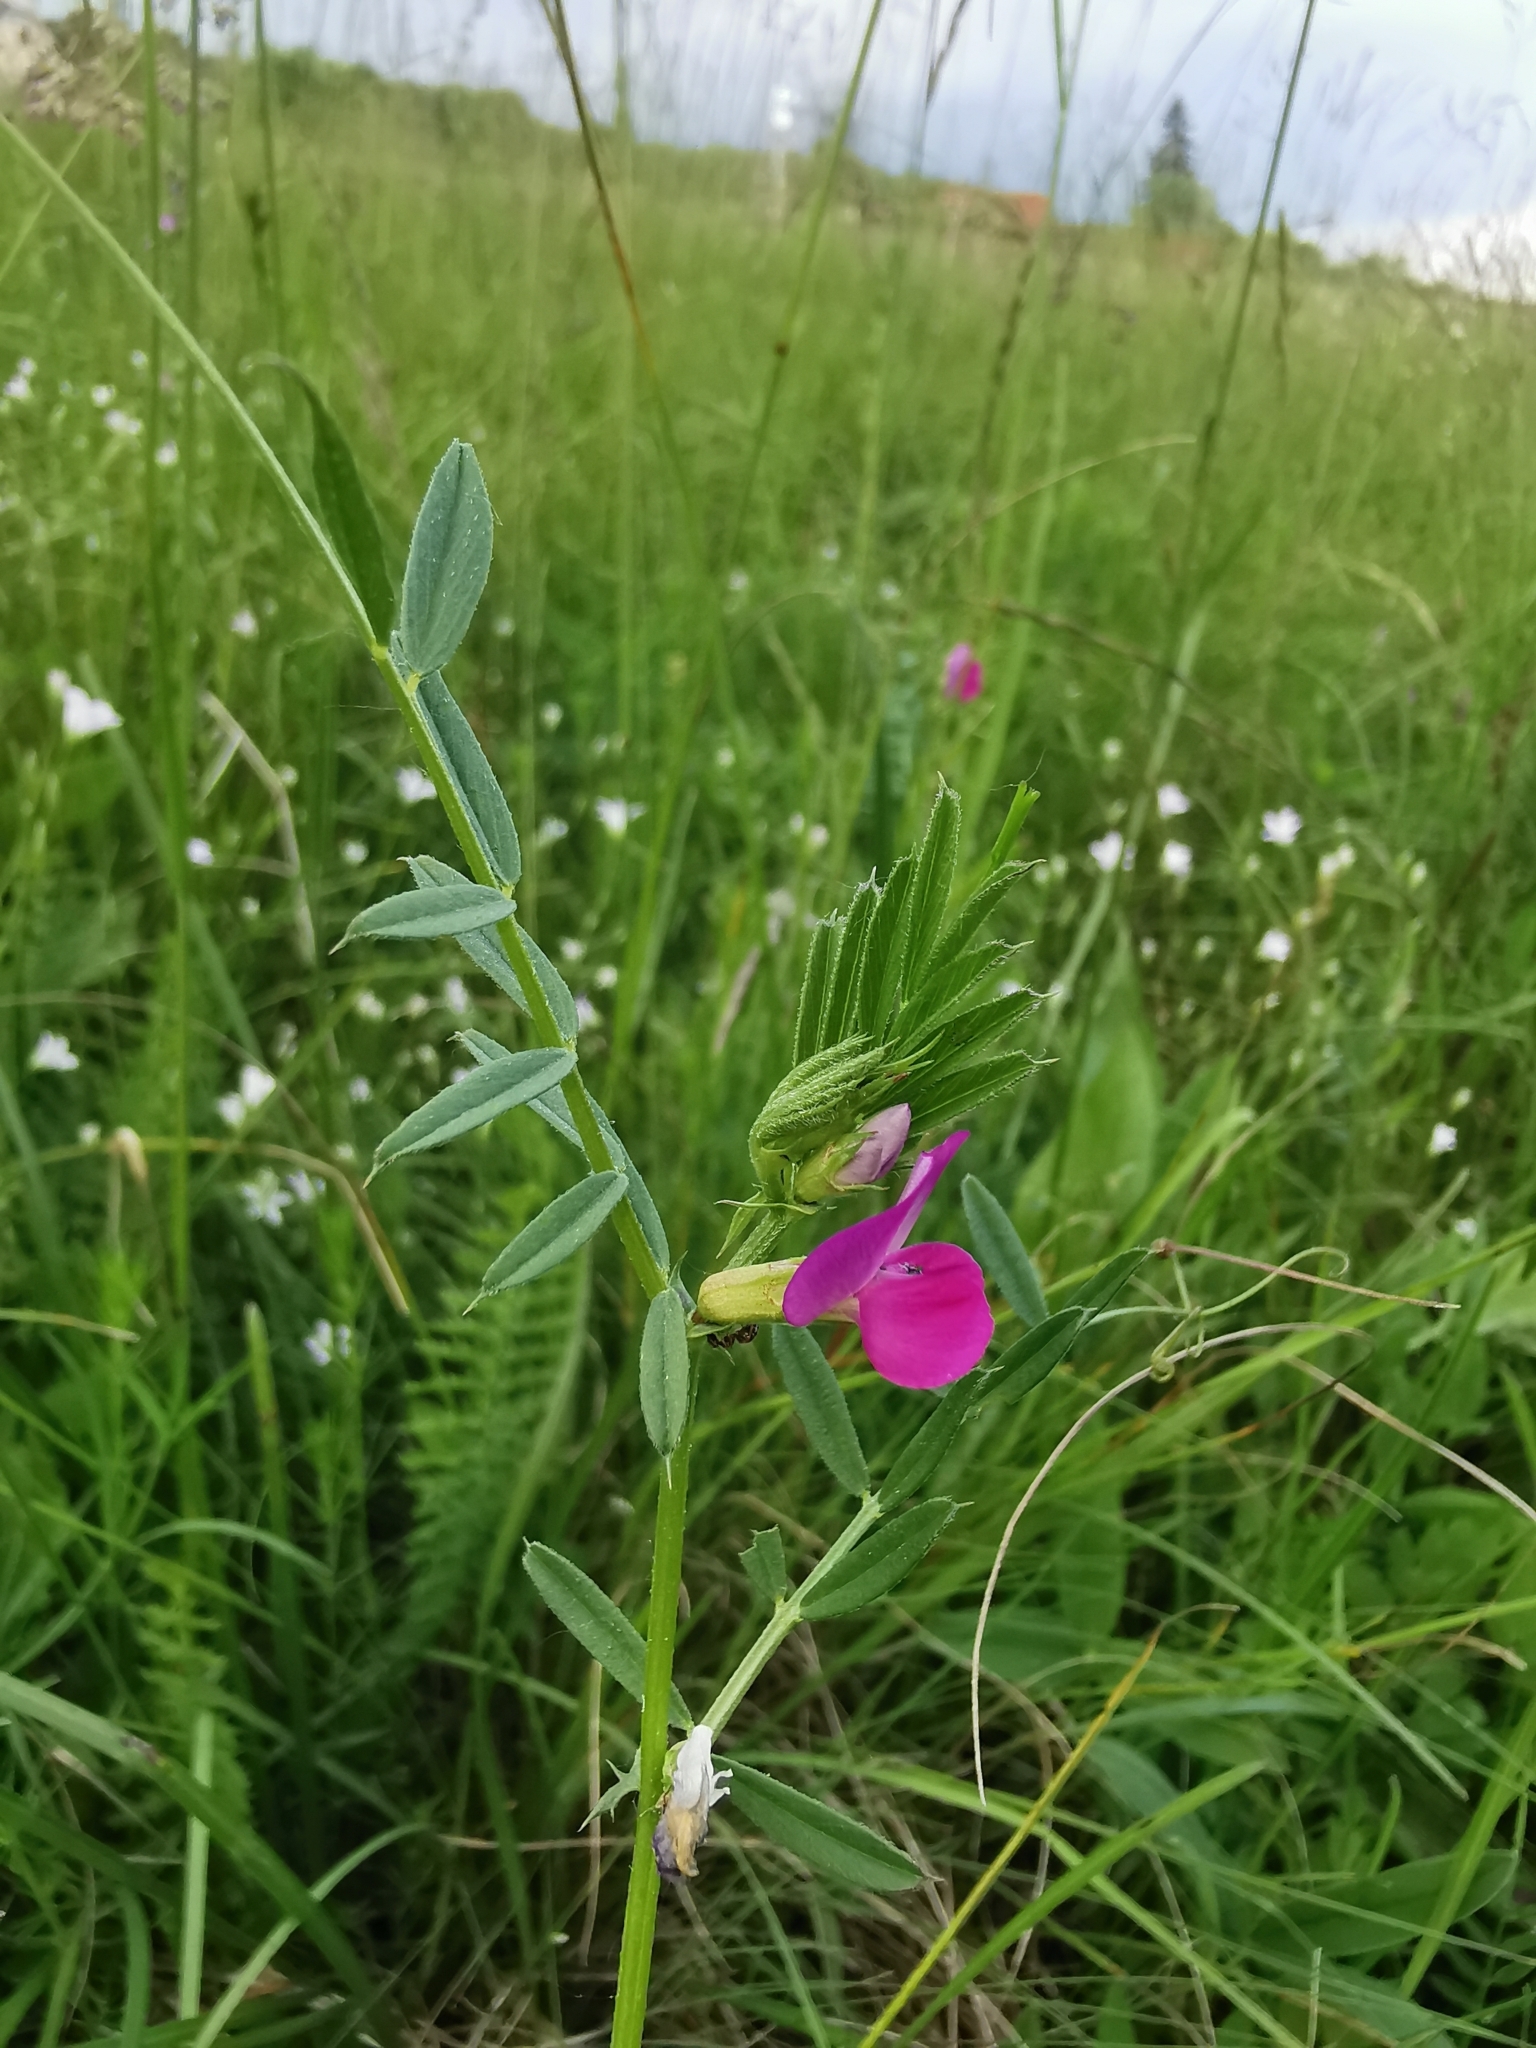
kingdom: Plantae
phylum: Tracheophyta
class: Magnoliopsida
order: Fabales
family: Fabaceae
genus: Vicia
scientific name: Vicia sativa
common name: Garden vetch
